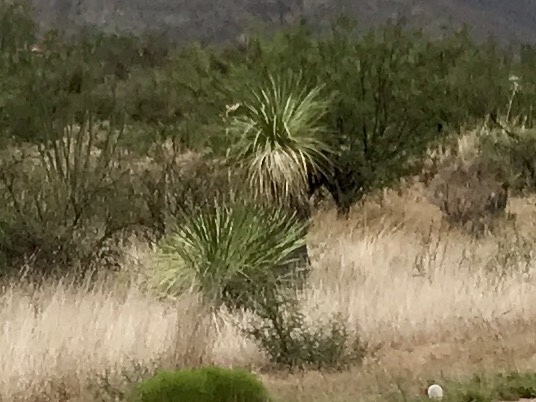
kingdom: Plantae
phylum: Tracheophyta
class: Liliopsida
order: Asparagales
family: Asparagaceae
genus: Yucca
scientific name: Yucca elata
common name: Palmella
